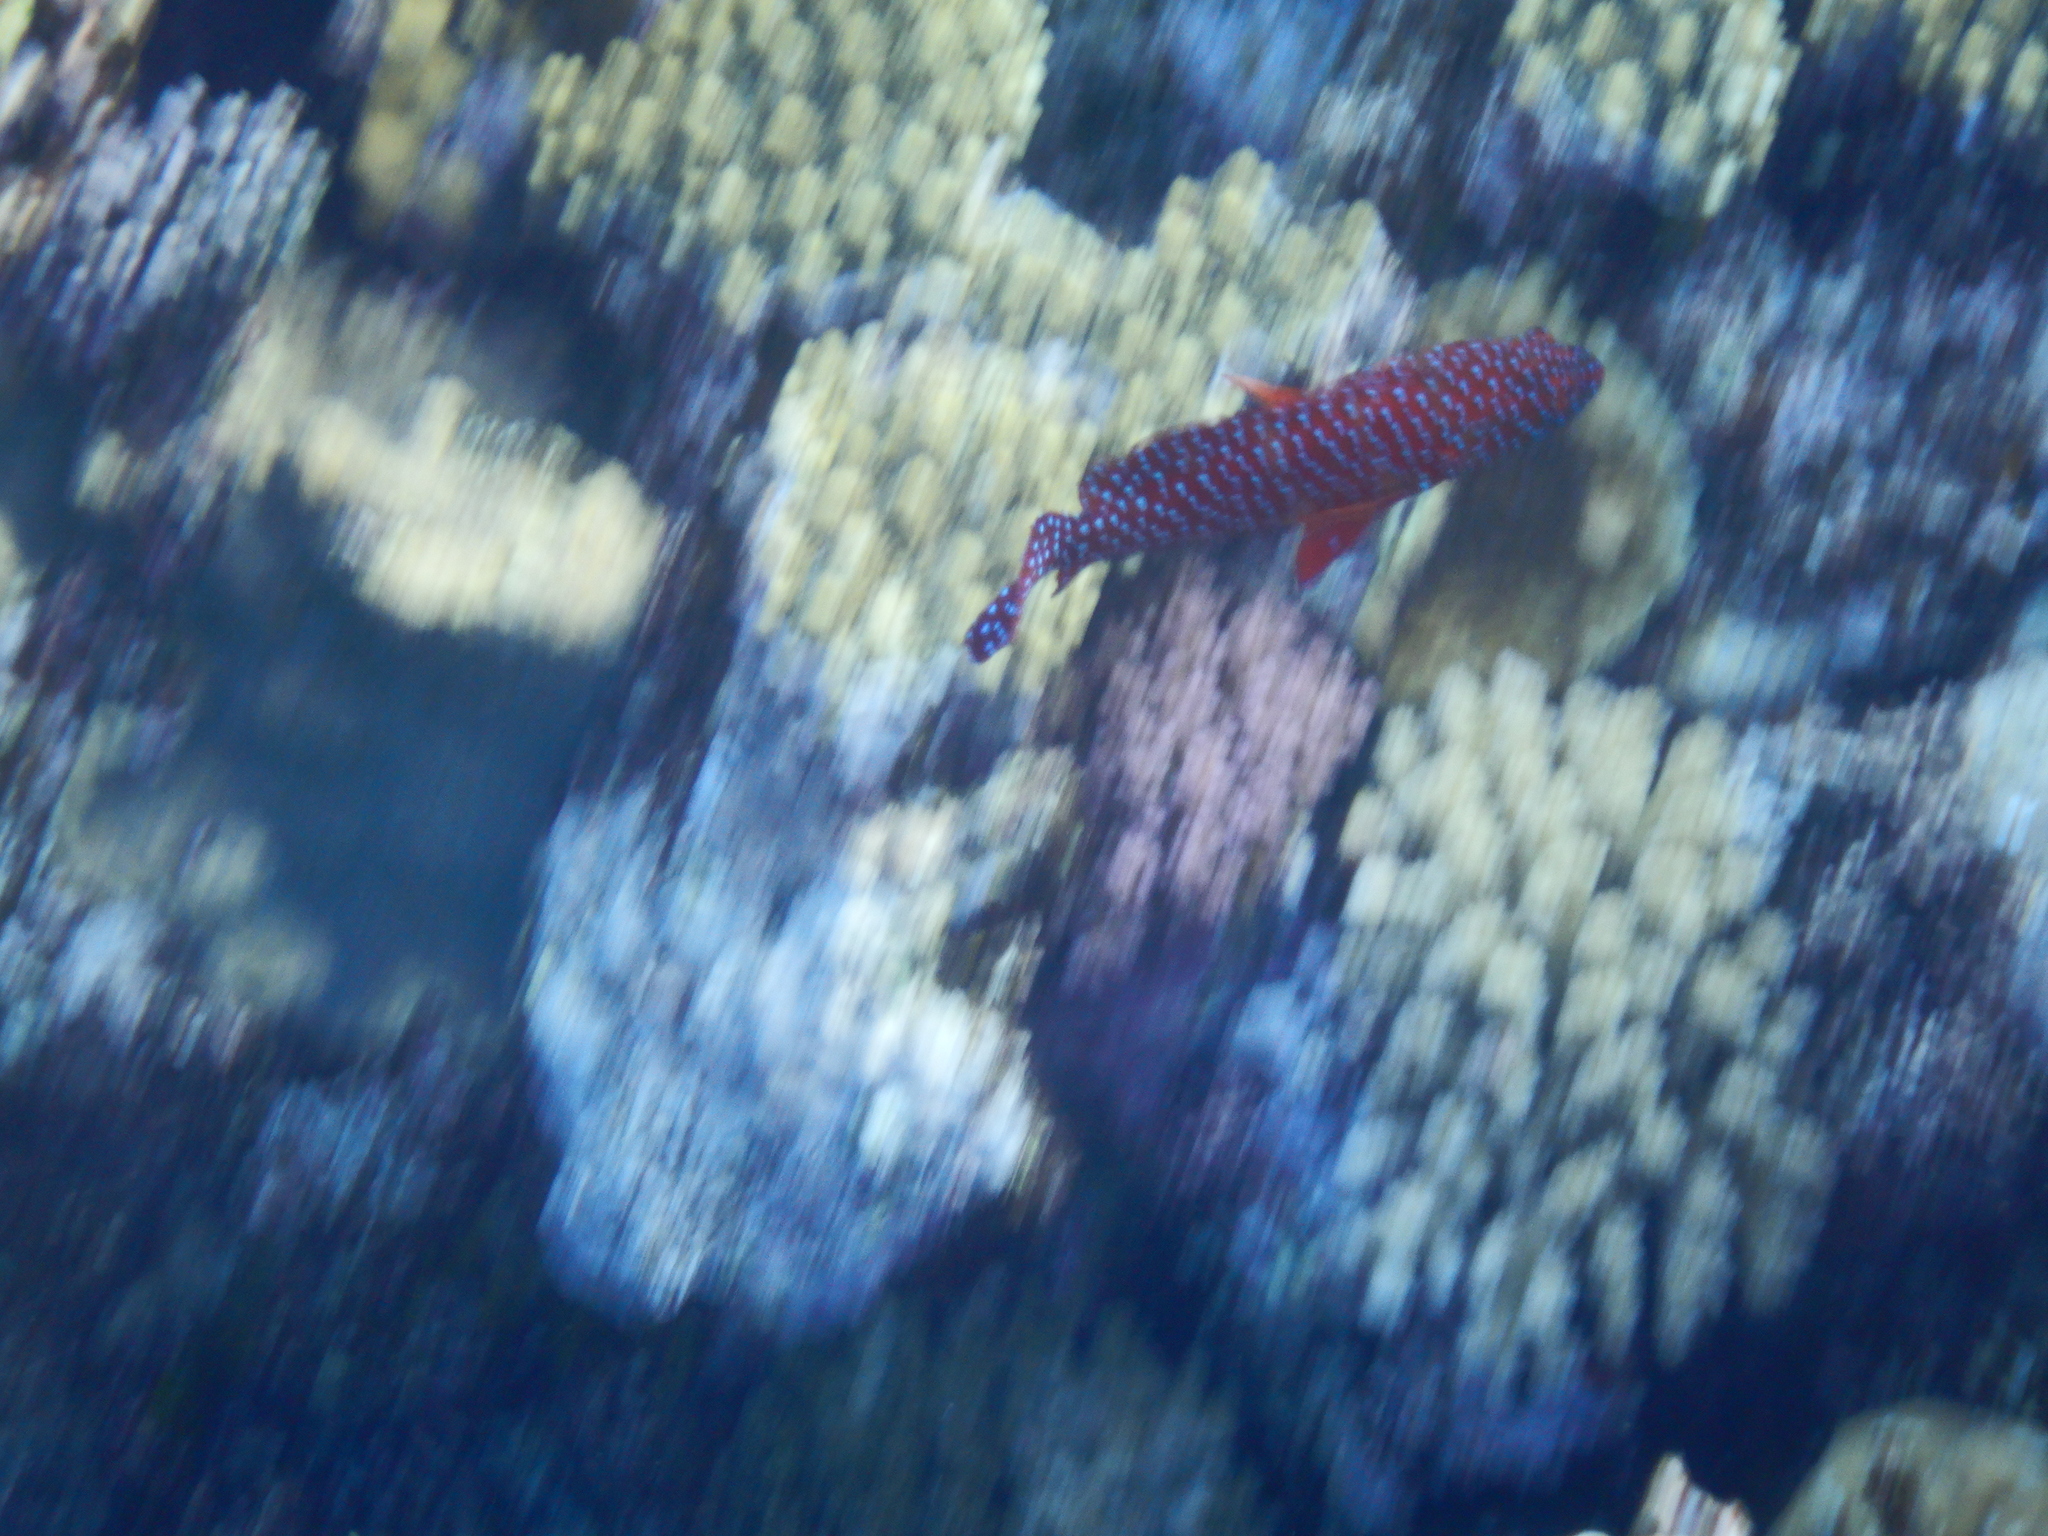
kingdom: Animalia
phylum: Chordata
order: Perciformes
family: Serranidae
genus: Cephalopholis
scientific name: Cephalopholis miniata
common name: Coral hind
